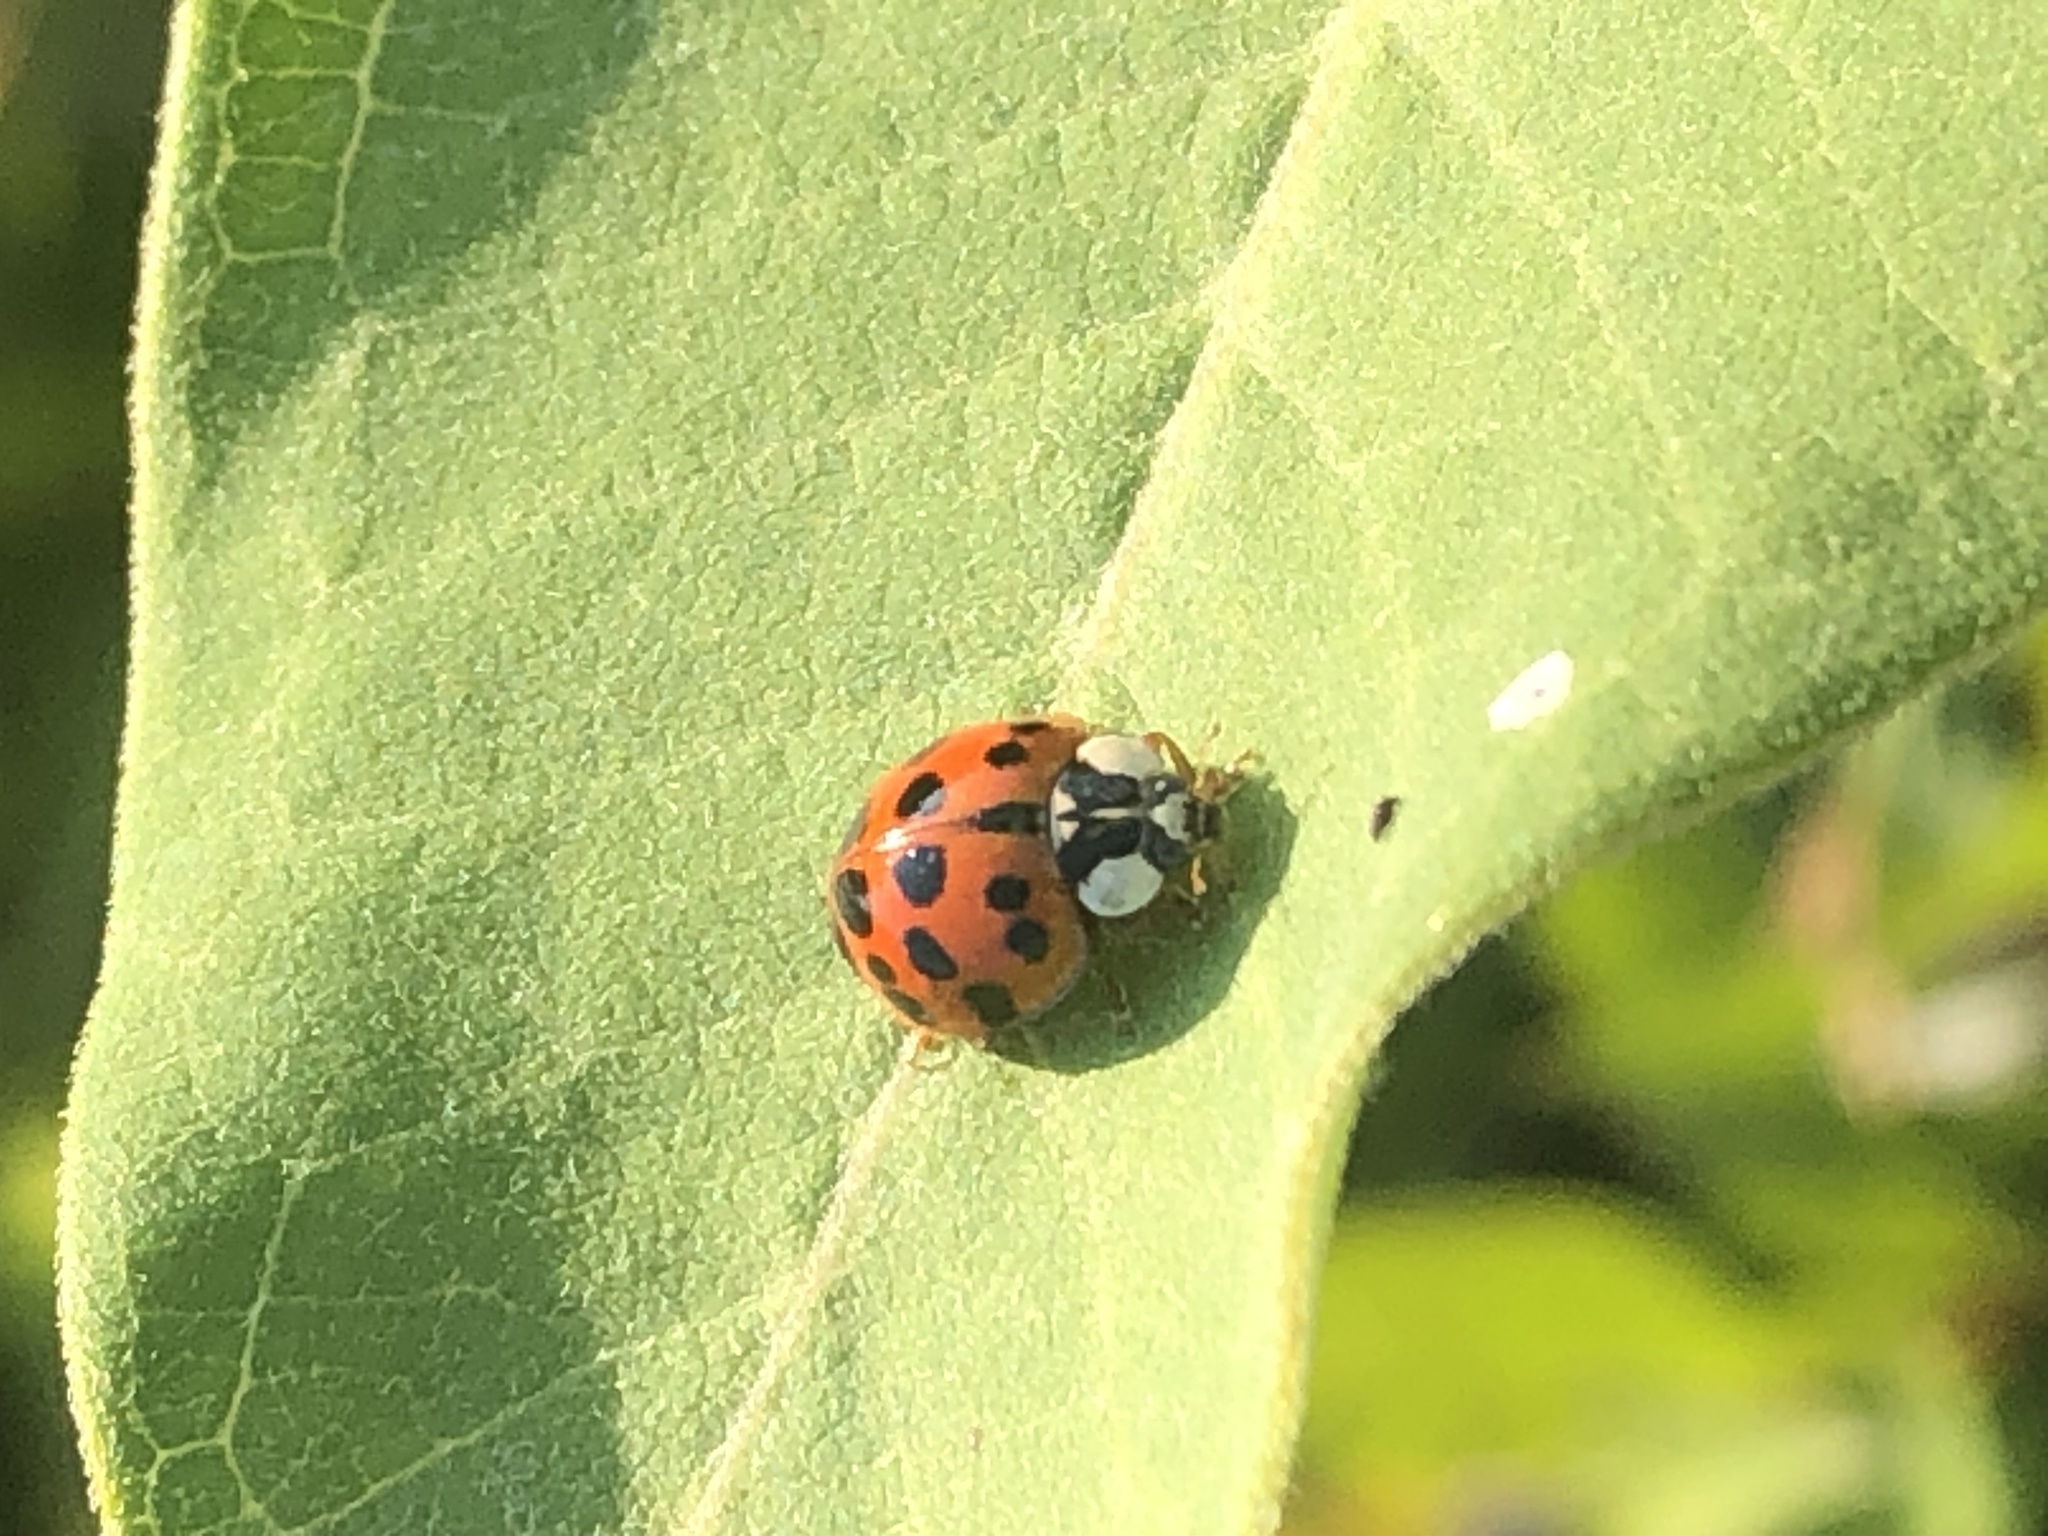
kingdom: Animalia
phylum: Arthropoda
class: Insecta
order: Coleoptera
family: Coccinellidae
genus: Harmonia
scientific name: Harmonia axyridis
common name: Harlequin ladybird
